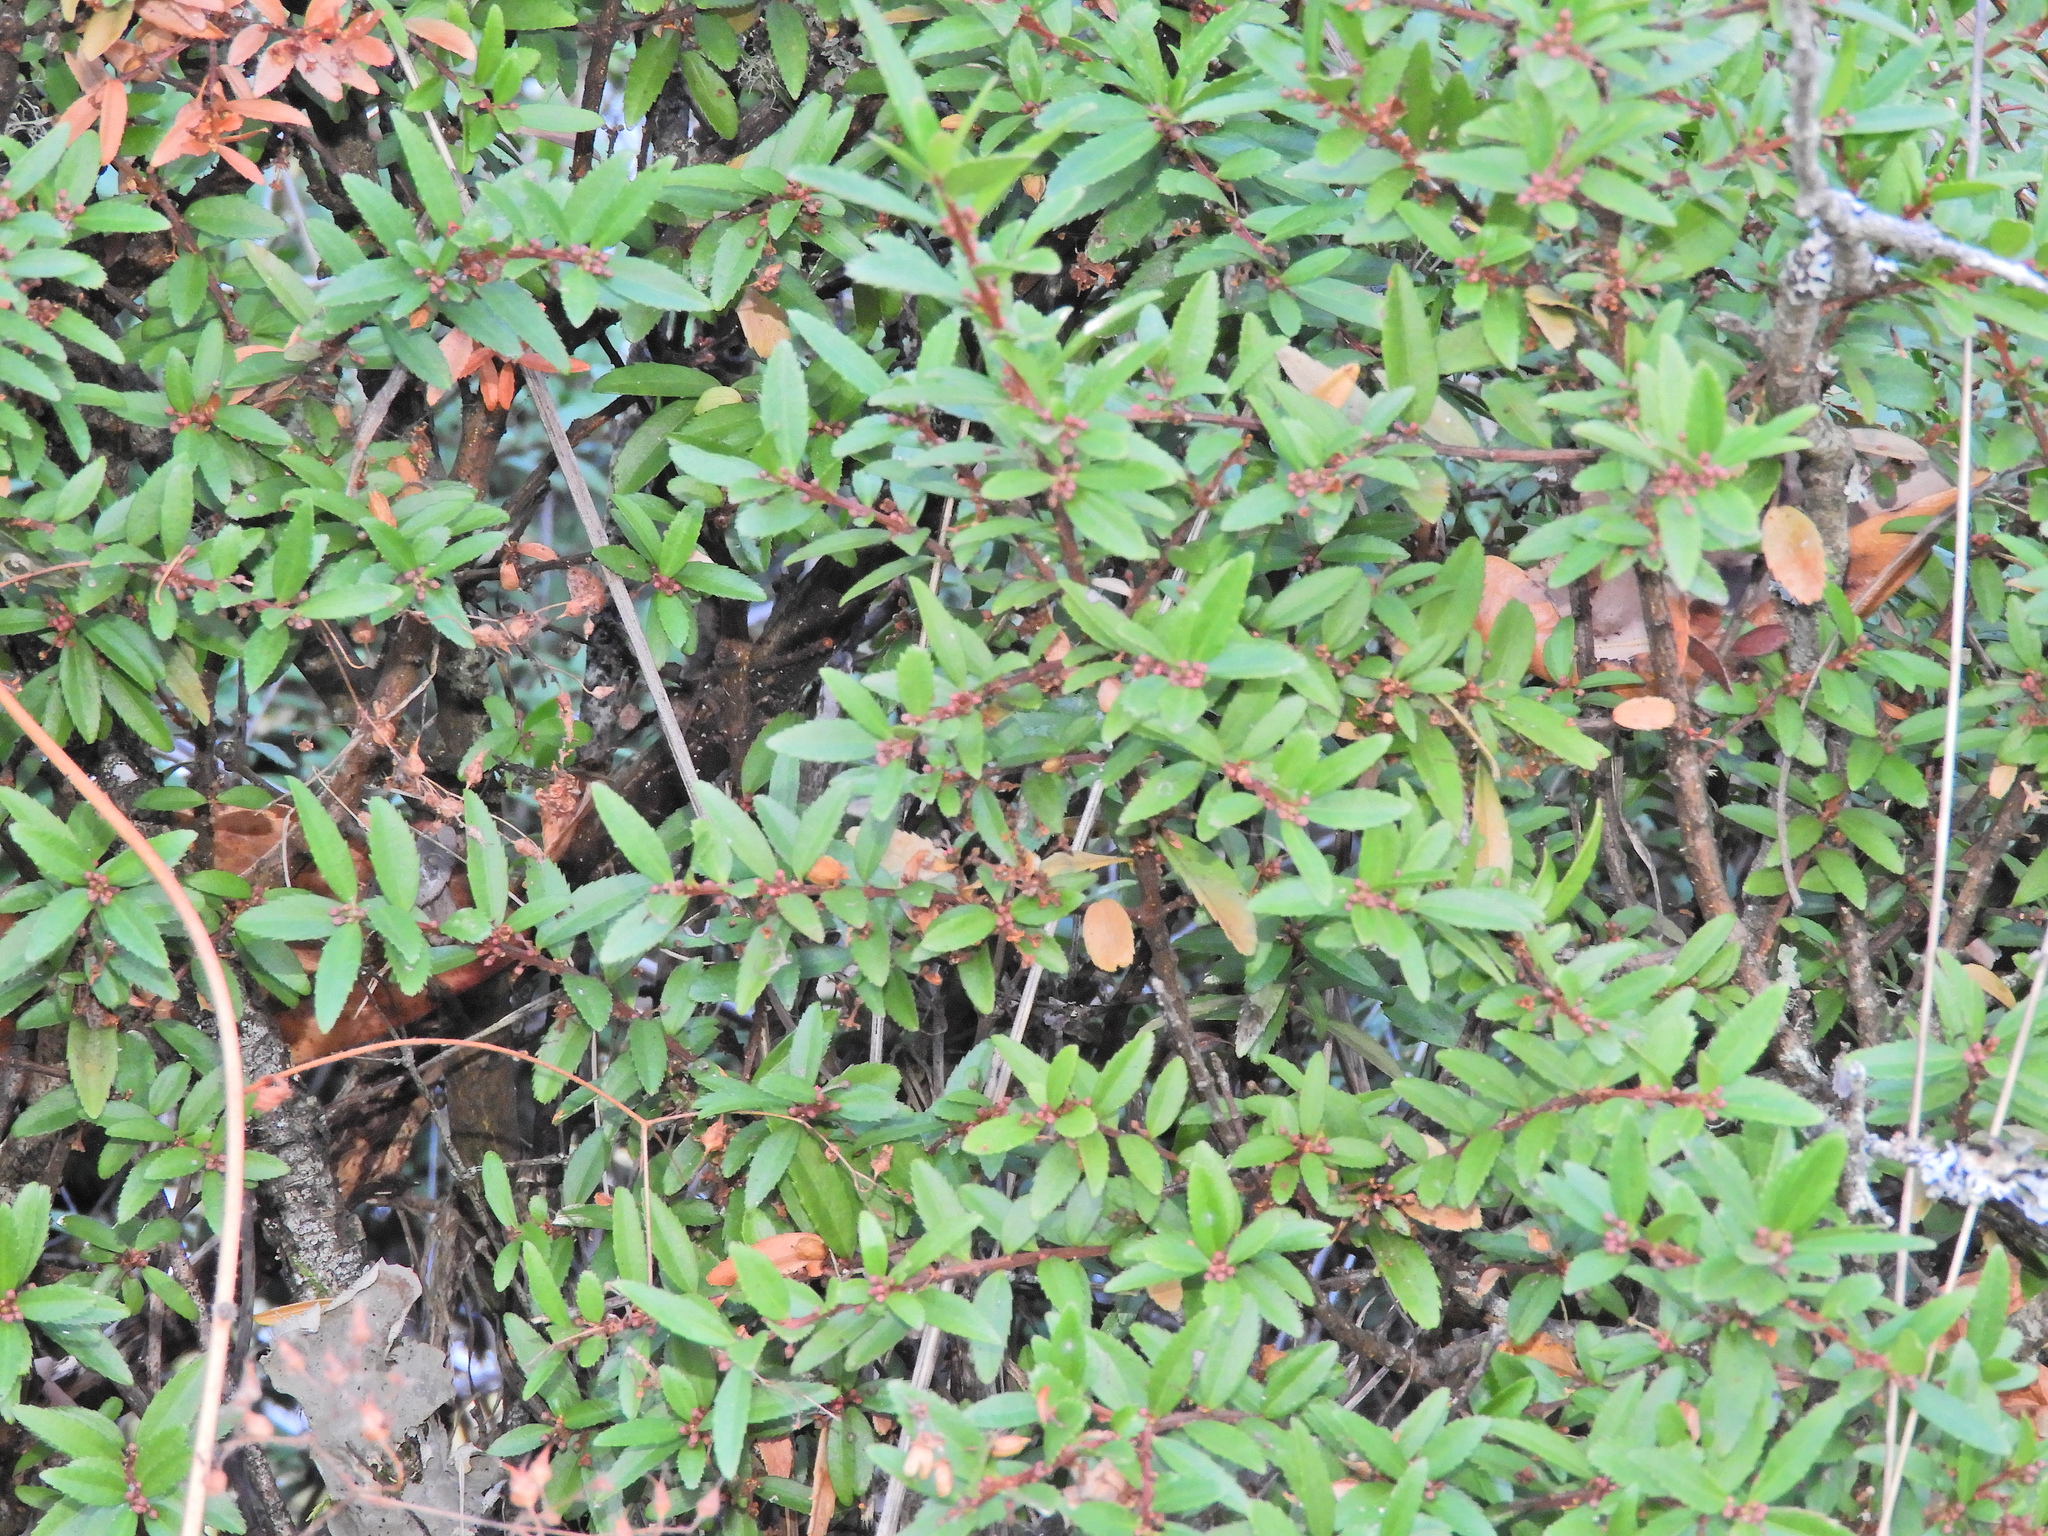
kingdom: Plantae
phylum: Tracheophyta
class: Magnoliopsida
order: Celastrales
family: Celastraceae
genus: Paxistima
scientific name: Paxistima myrsinites
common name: Mountain-lover
